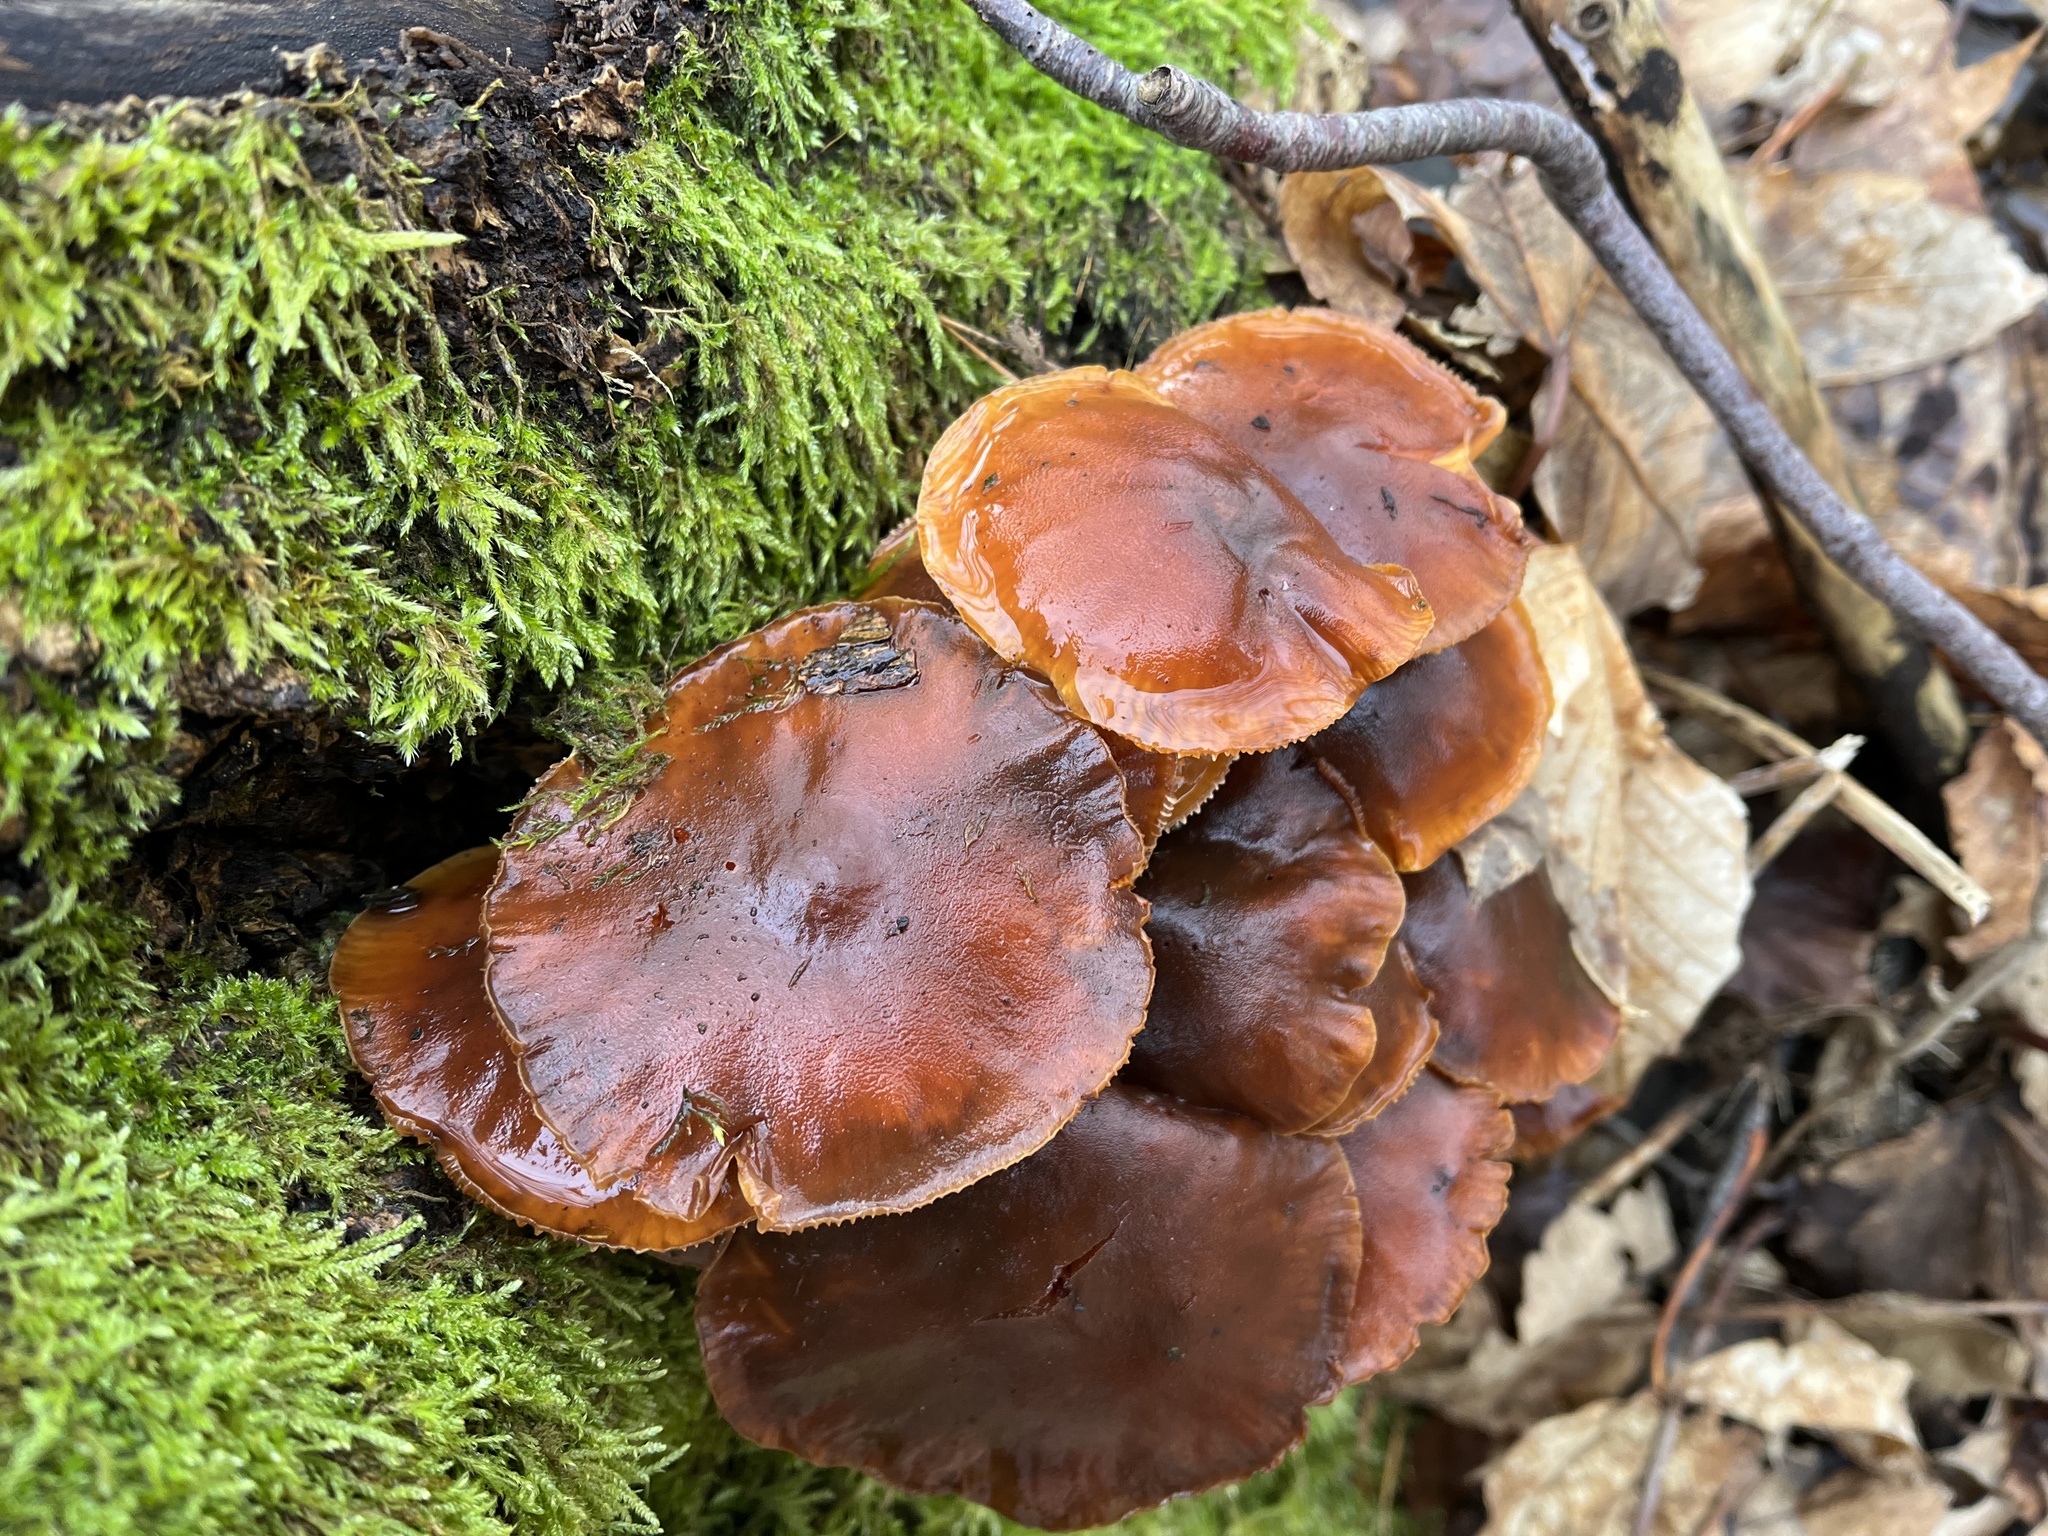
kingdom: Fungi
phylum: Basidiomycota
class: Agaricomycetes
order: Agaricales
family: Physalacriaceae
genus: Flammulina
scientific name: Flammulina
